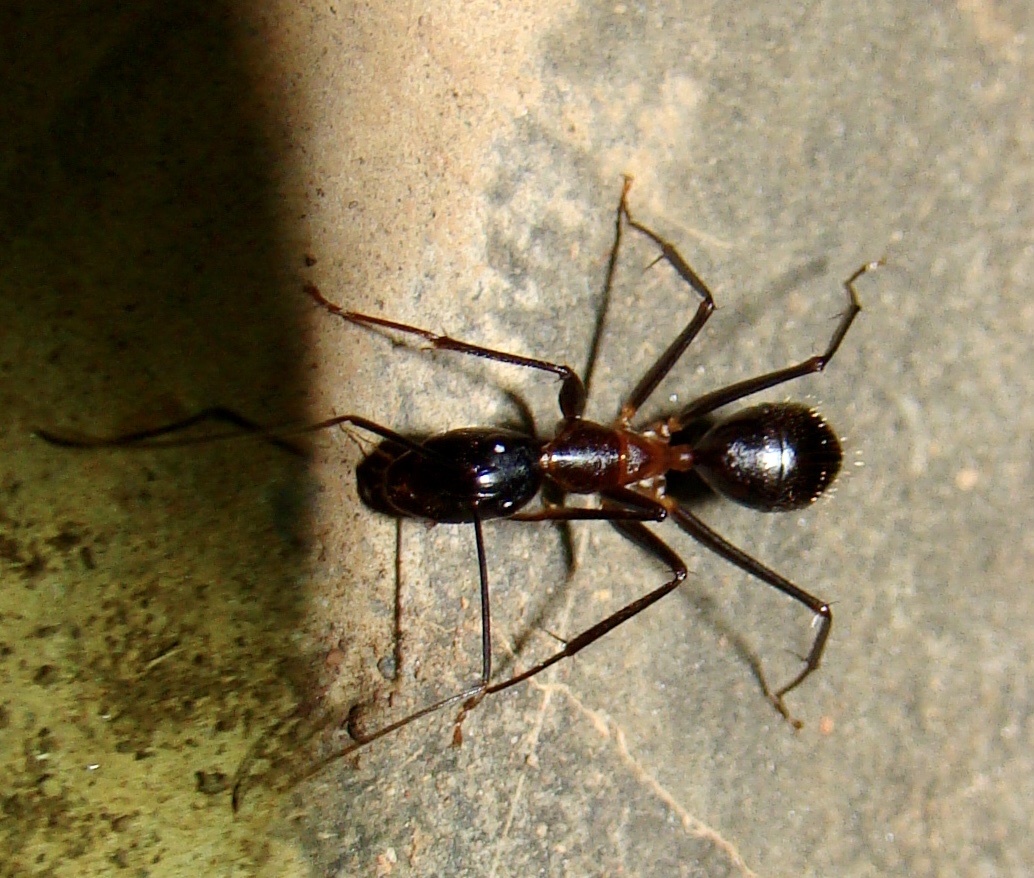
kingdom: Animalia
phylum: Arthropoda
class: Insecta
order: Hymenoptera
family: Formicidae
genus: Camponotus
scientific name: Camponotus sexpunctatus
